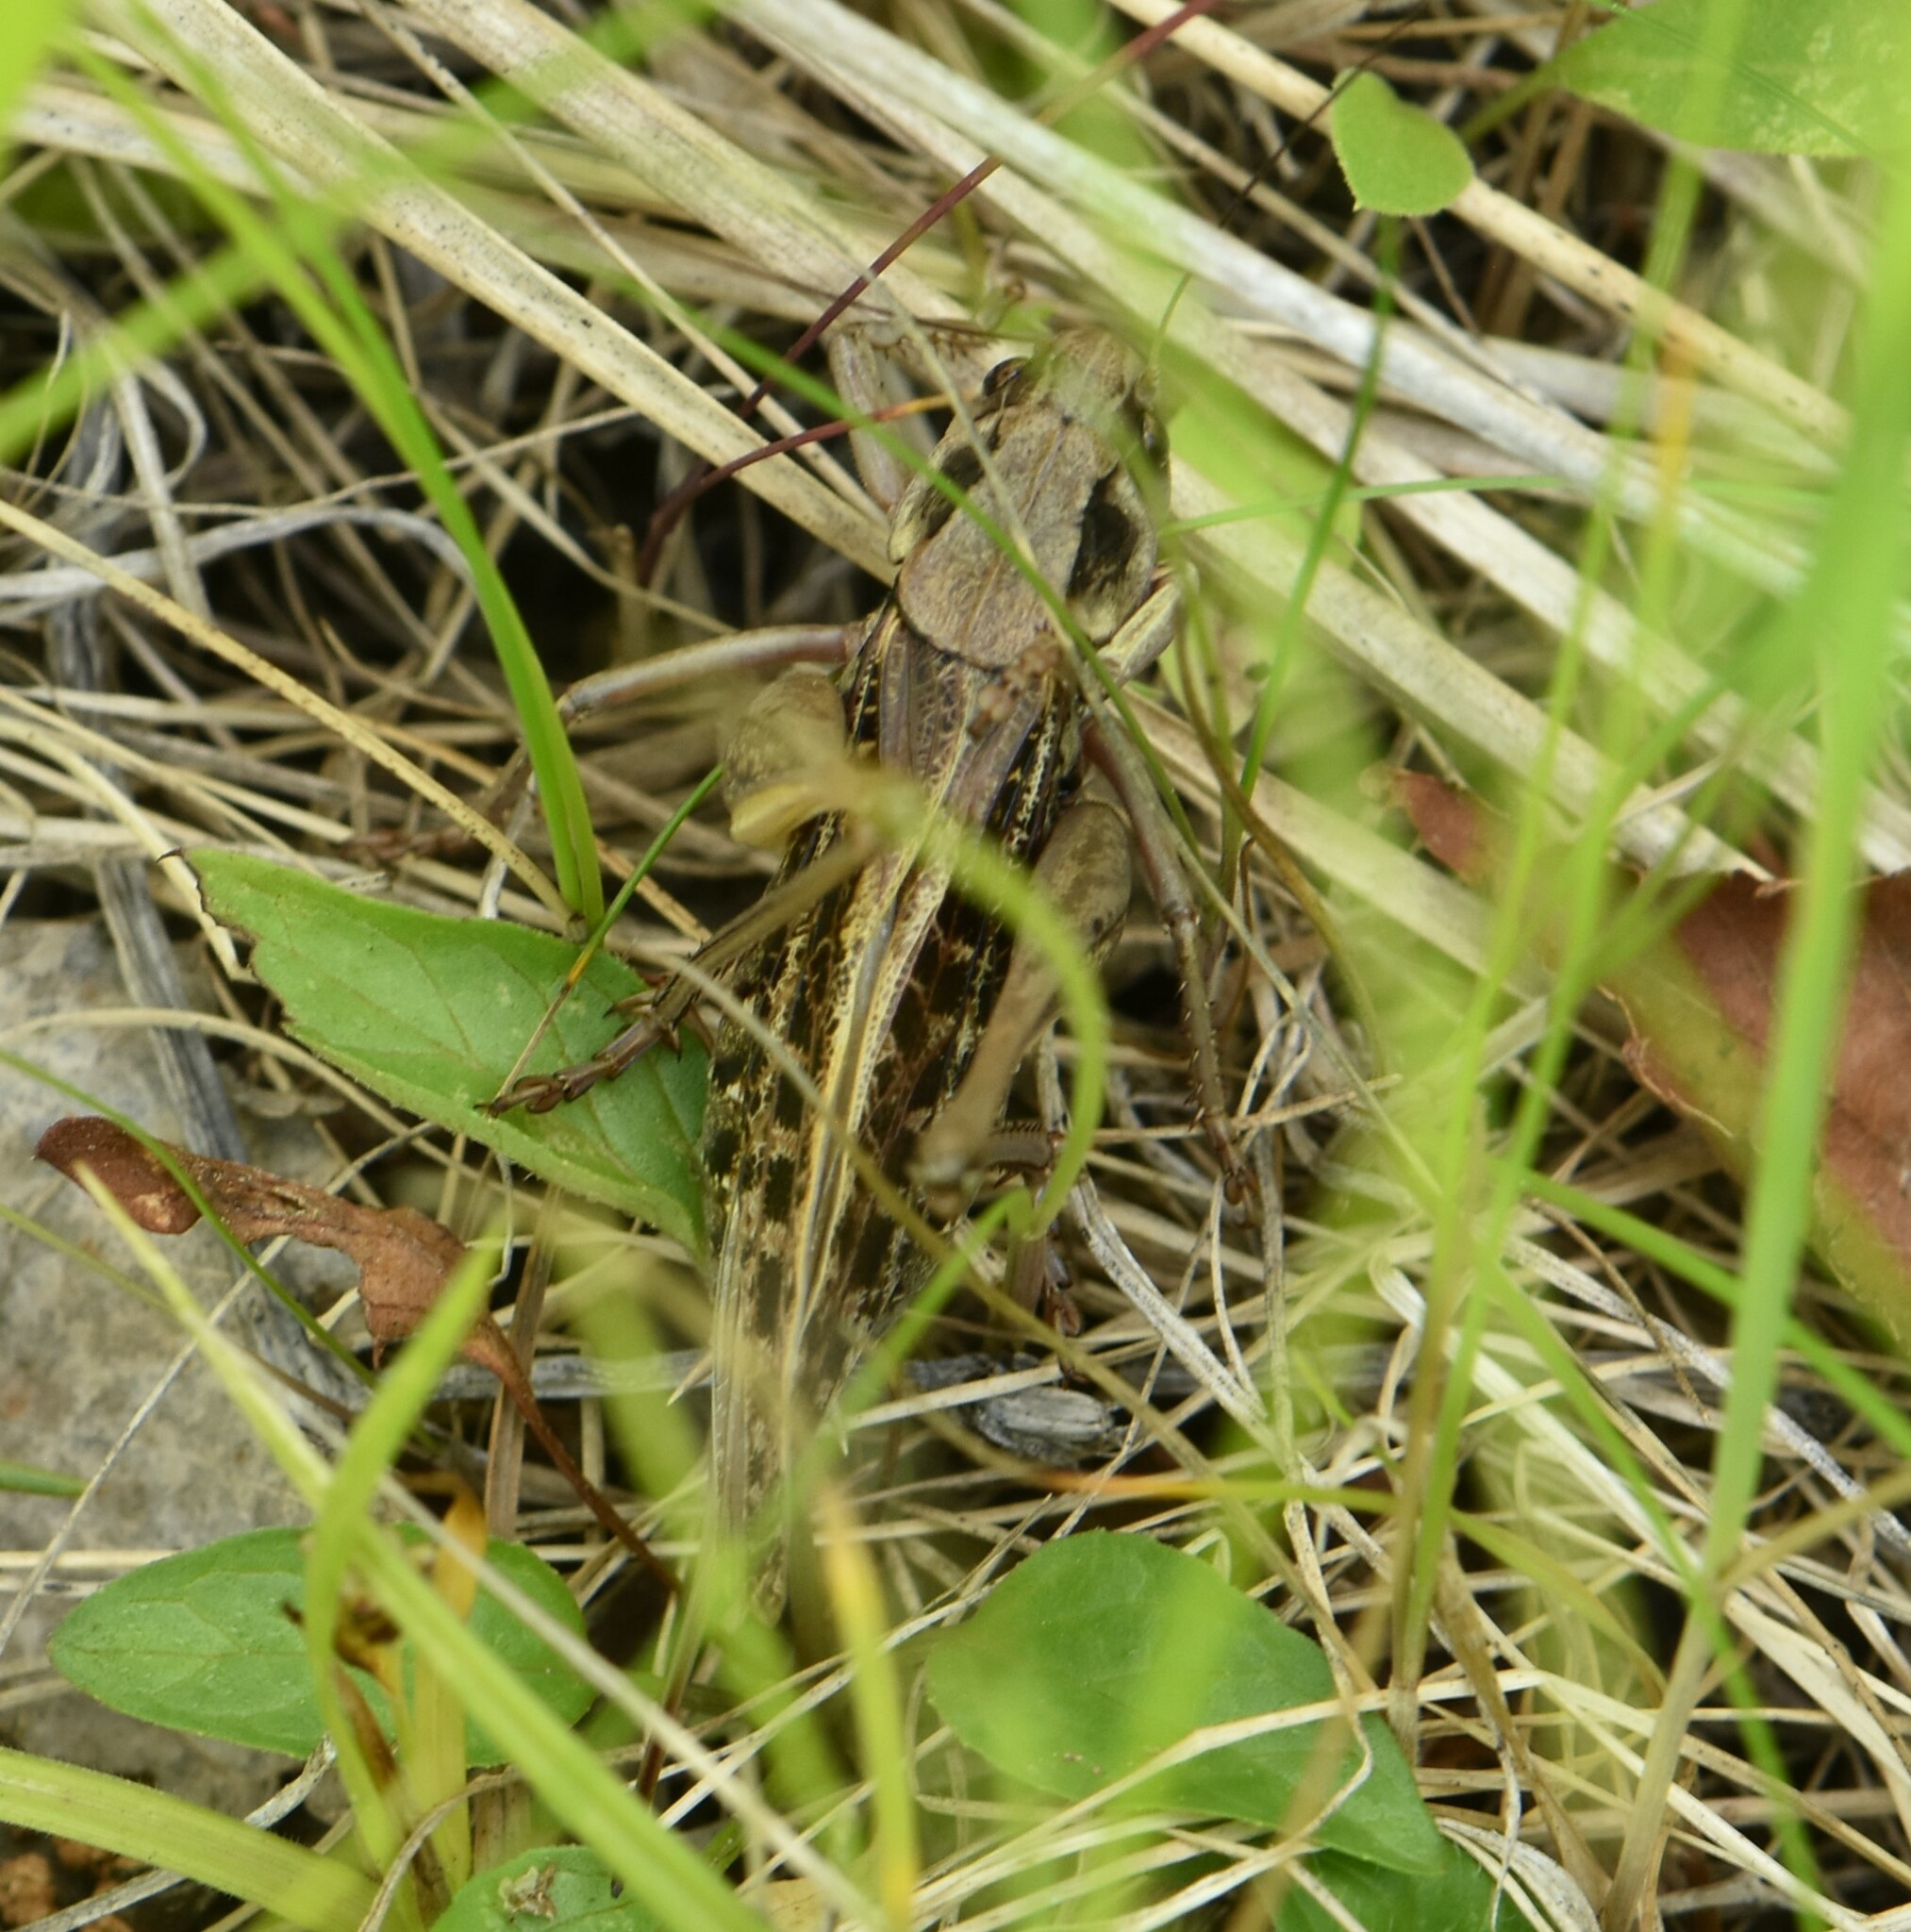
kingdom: Animalia
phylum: Arthropoda
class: Insecta
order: Orthoptera
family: Tettigoniidae
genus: Decticus
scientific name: Decticus verrucivorus
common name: Wart-biter
